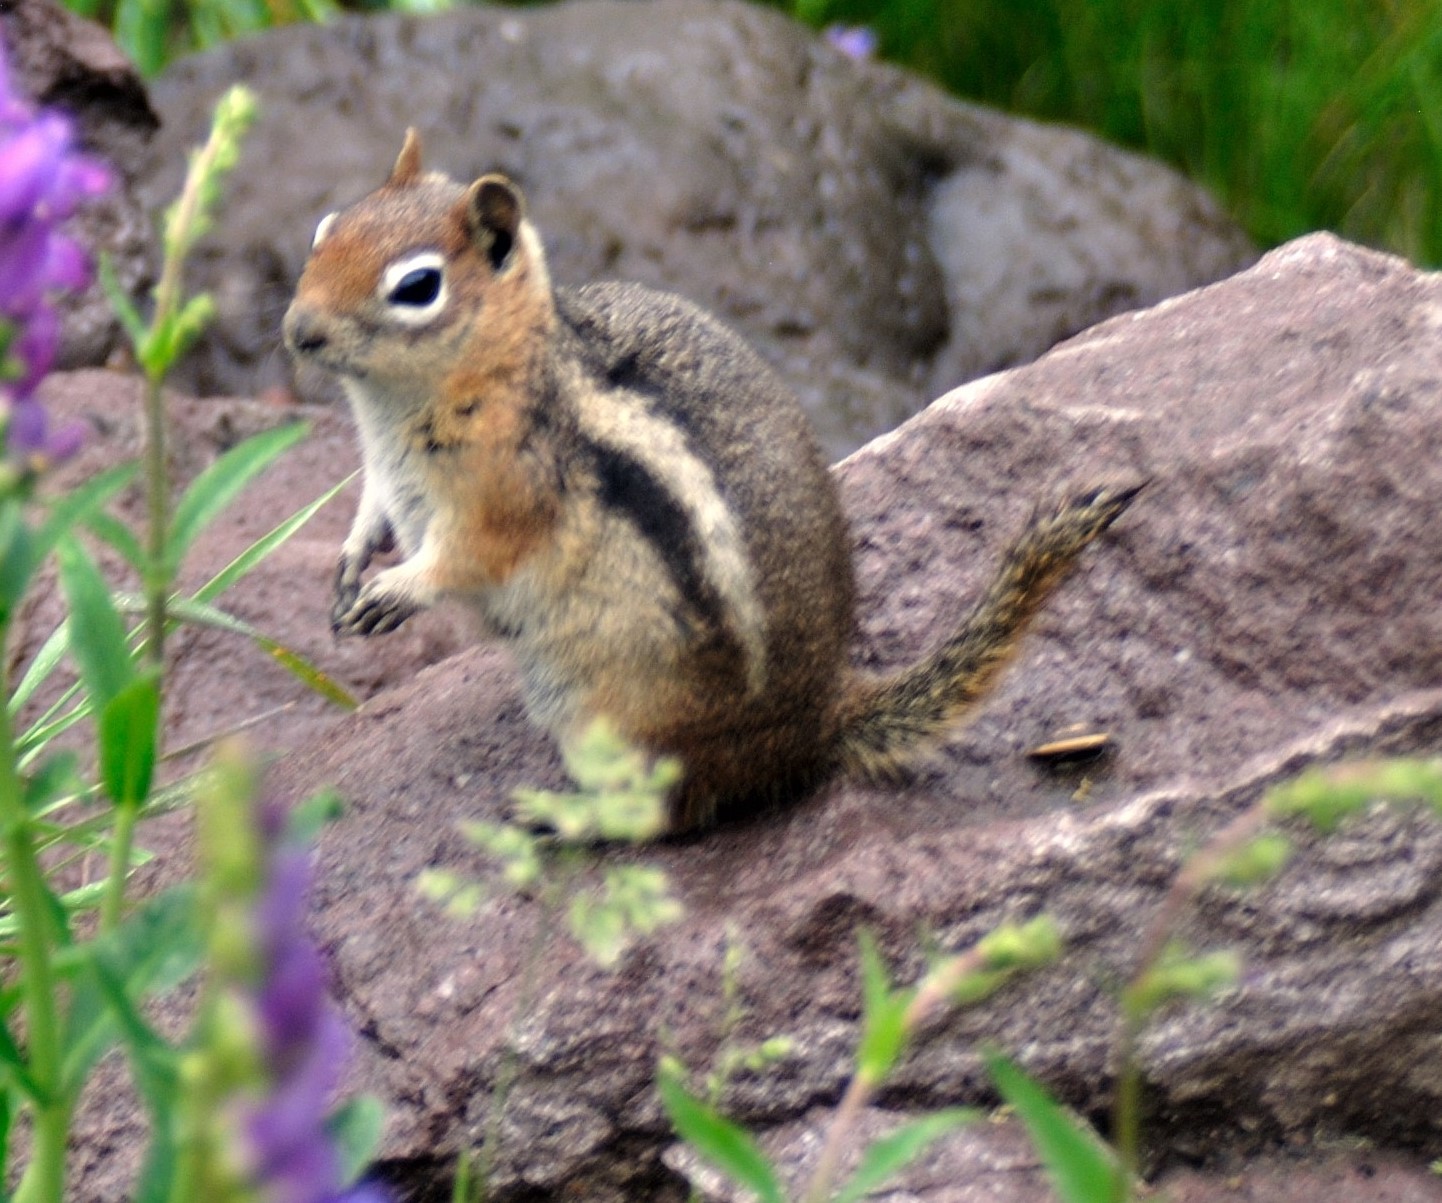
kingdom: Animalia
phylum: Chordata
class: Mammalia
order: Rodentia
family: Sciuridae
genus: Callospermophilus
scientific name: Callospermophilus lateralis
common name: Golden-mantled ground squirrel
